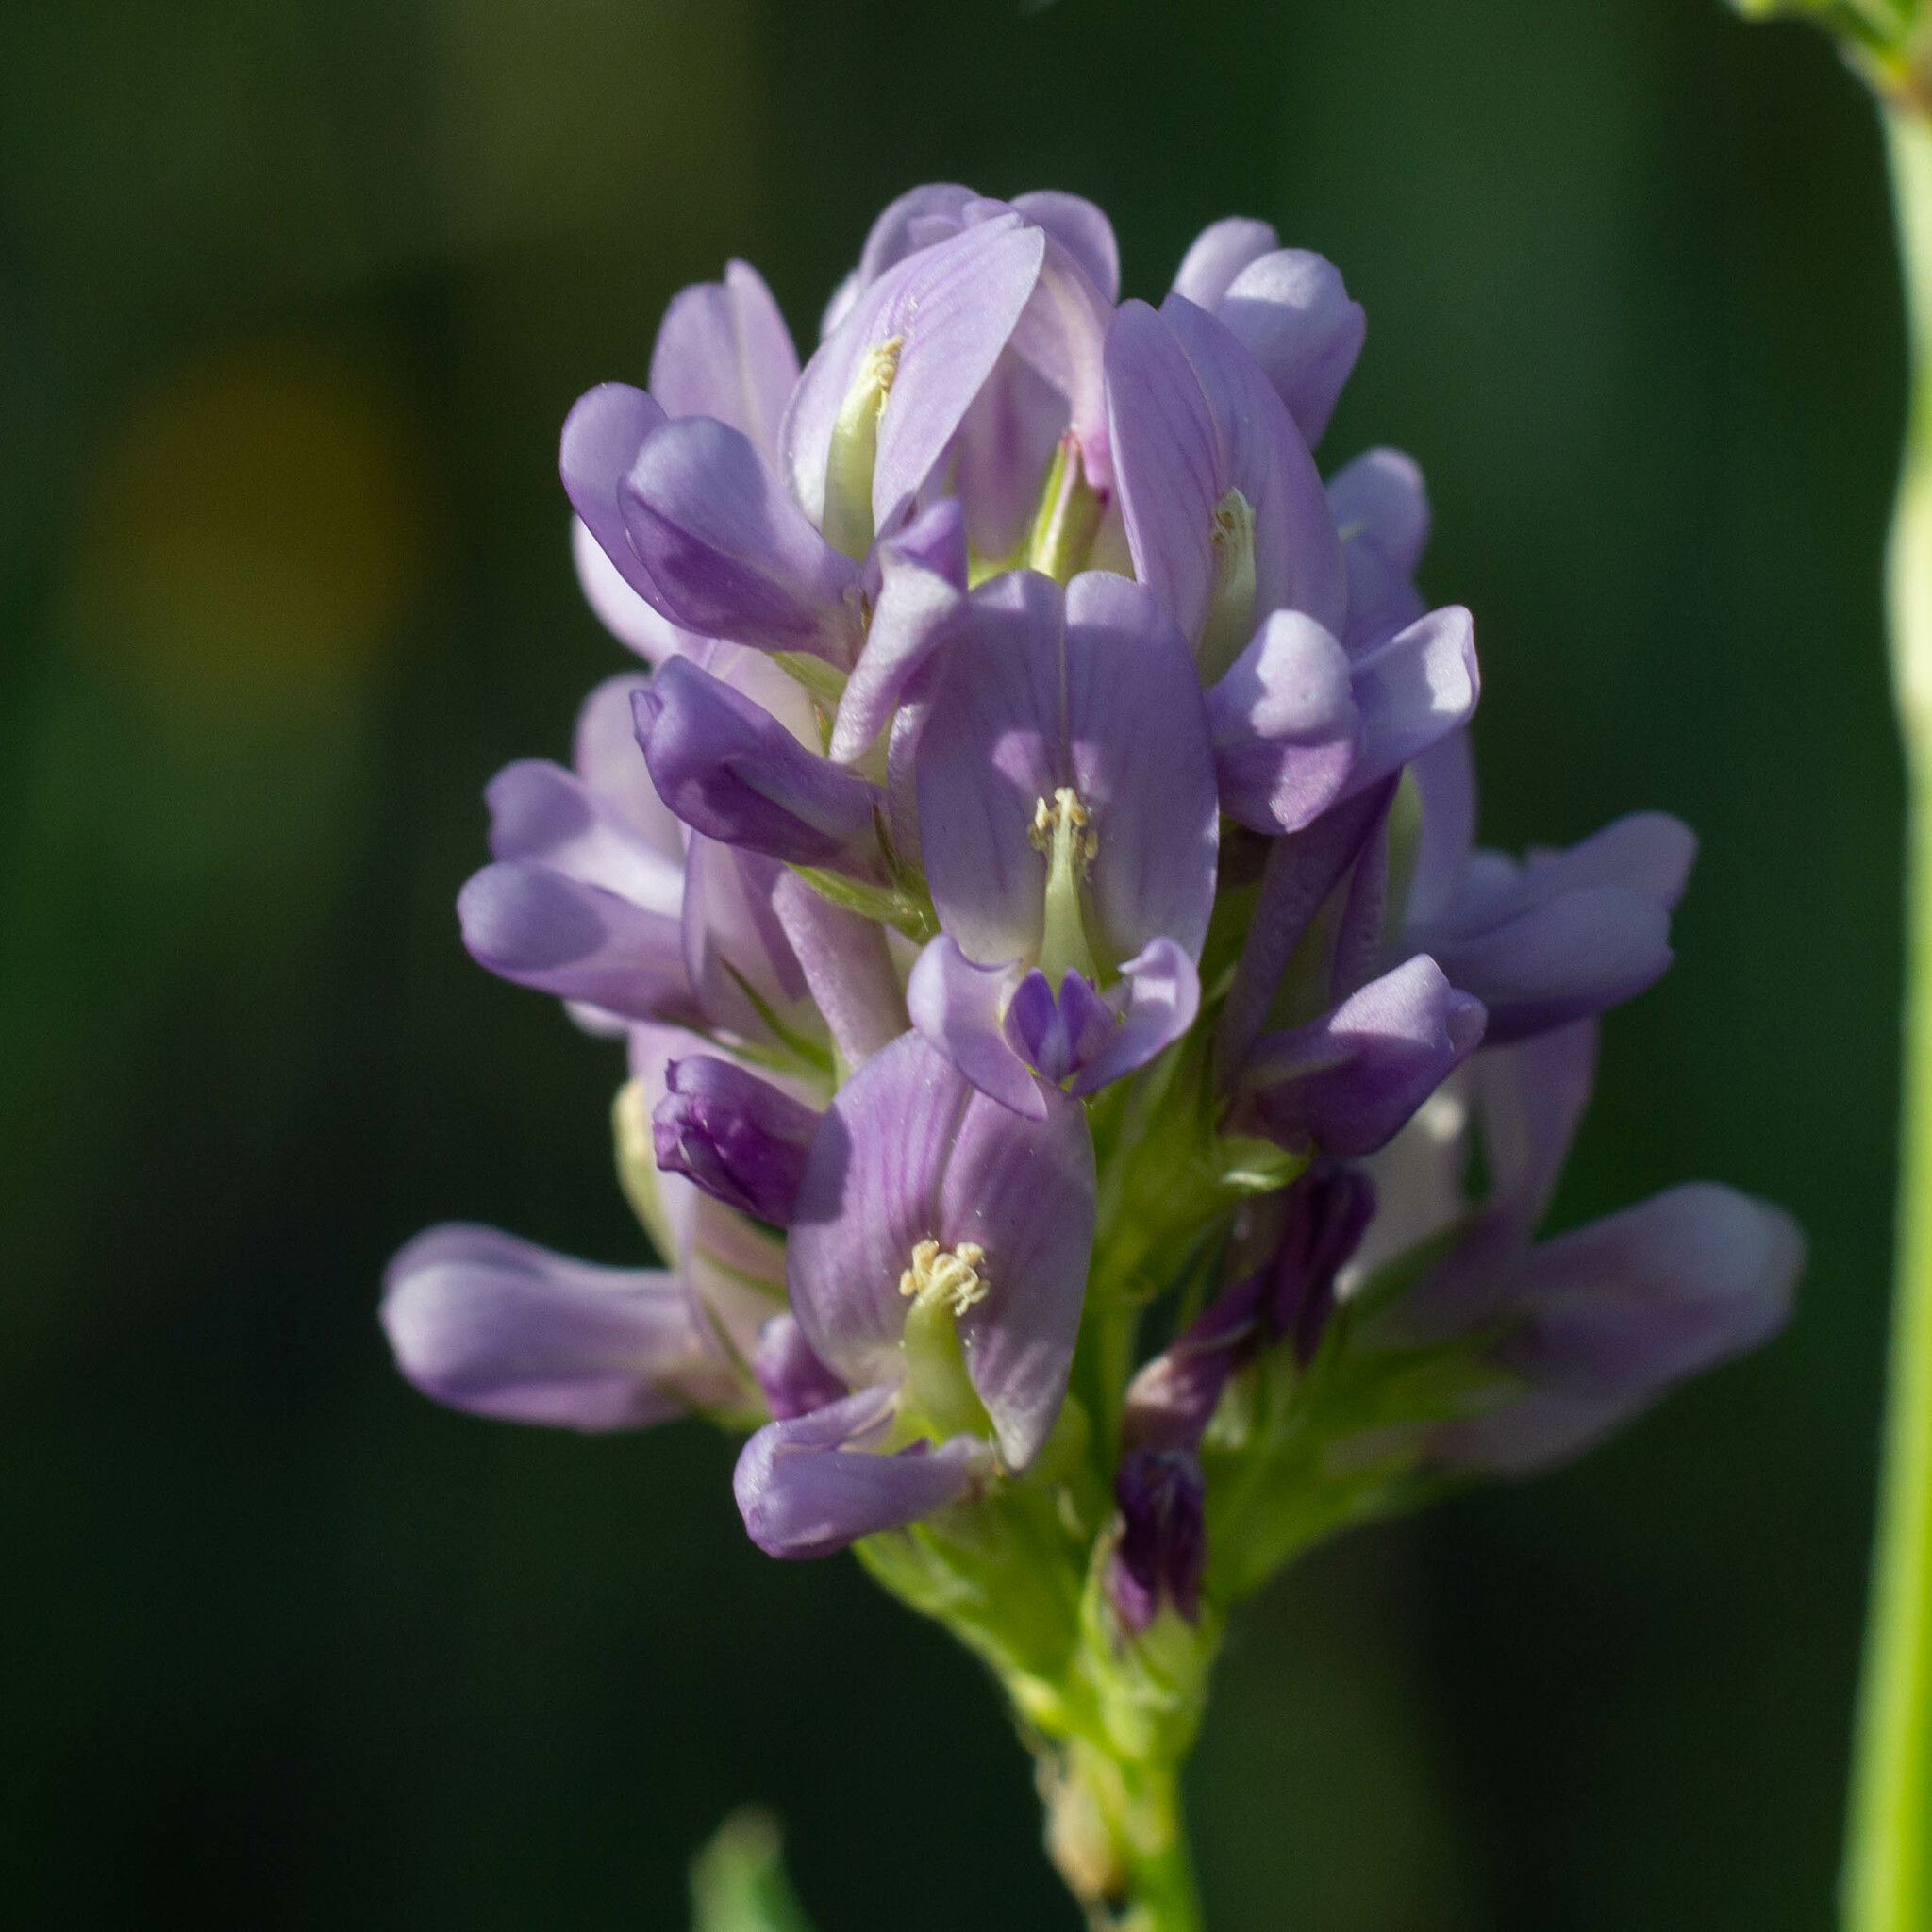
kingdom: Plantae
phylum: Tracheophyta
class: Magnoliopsida
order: Fabales
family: Fabaceae
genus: Medicago
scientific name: Medicago sativa
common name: Alfalfa
